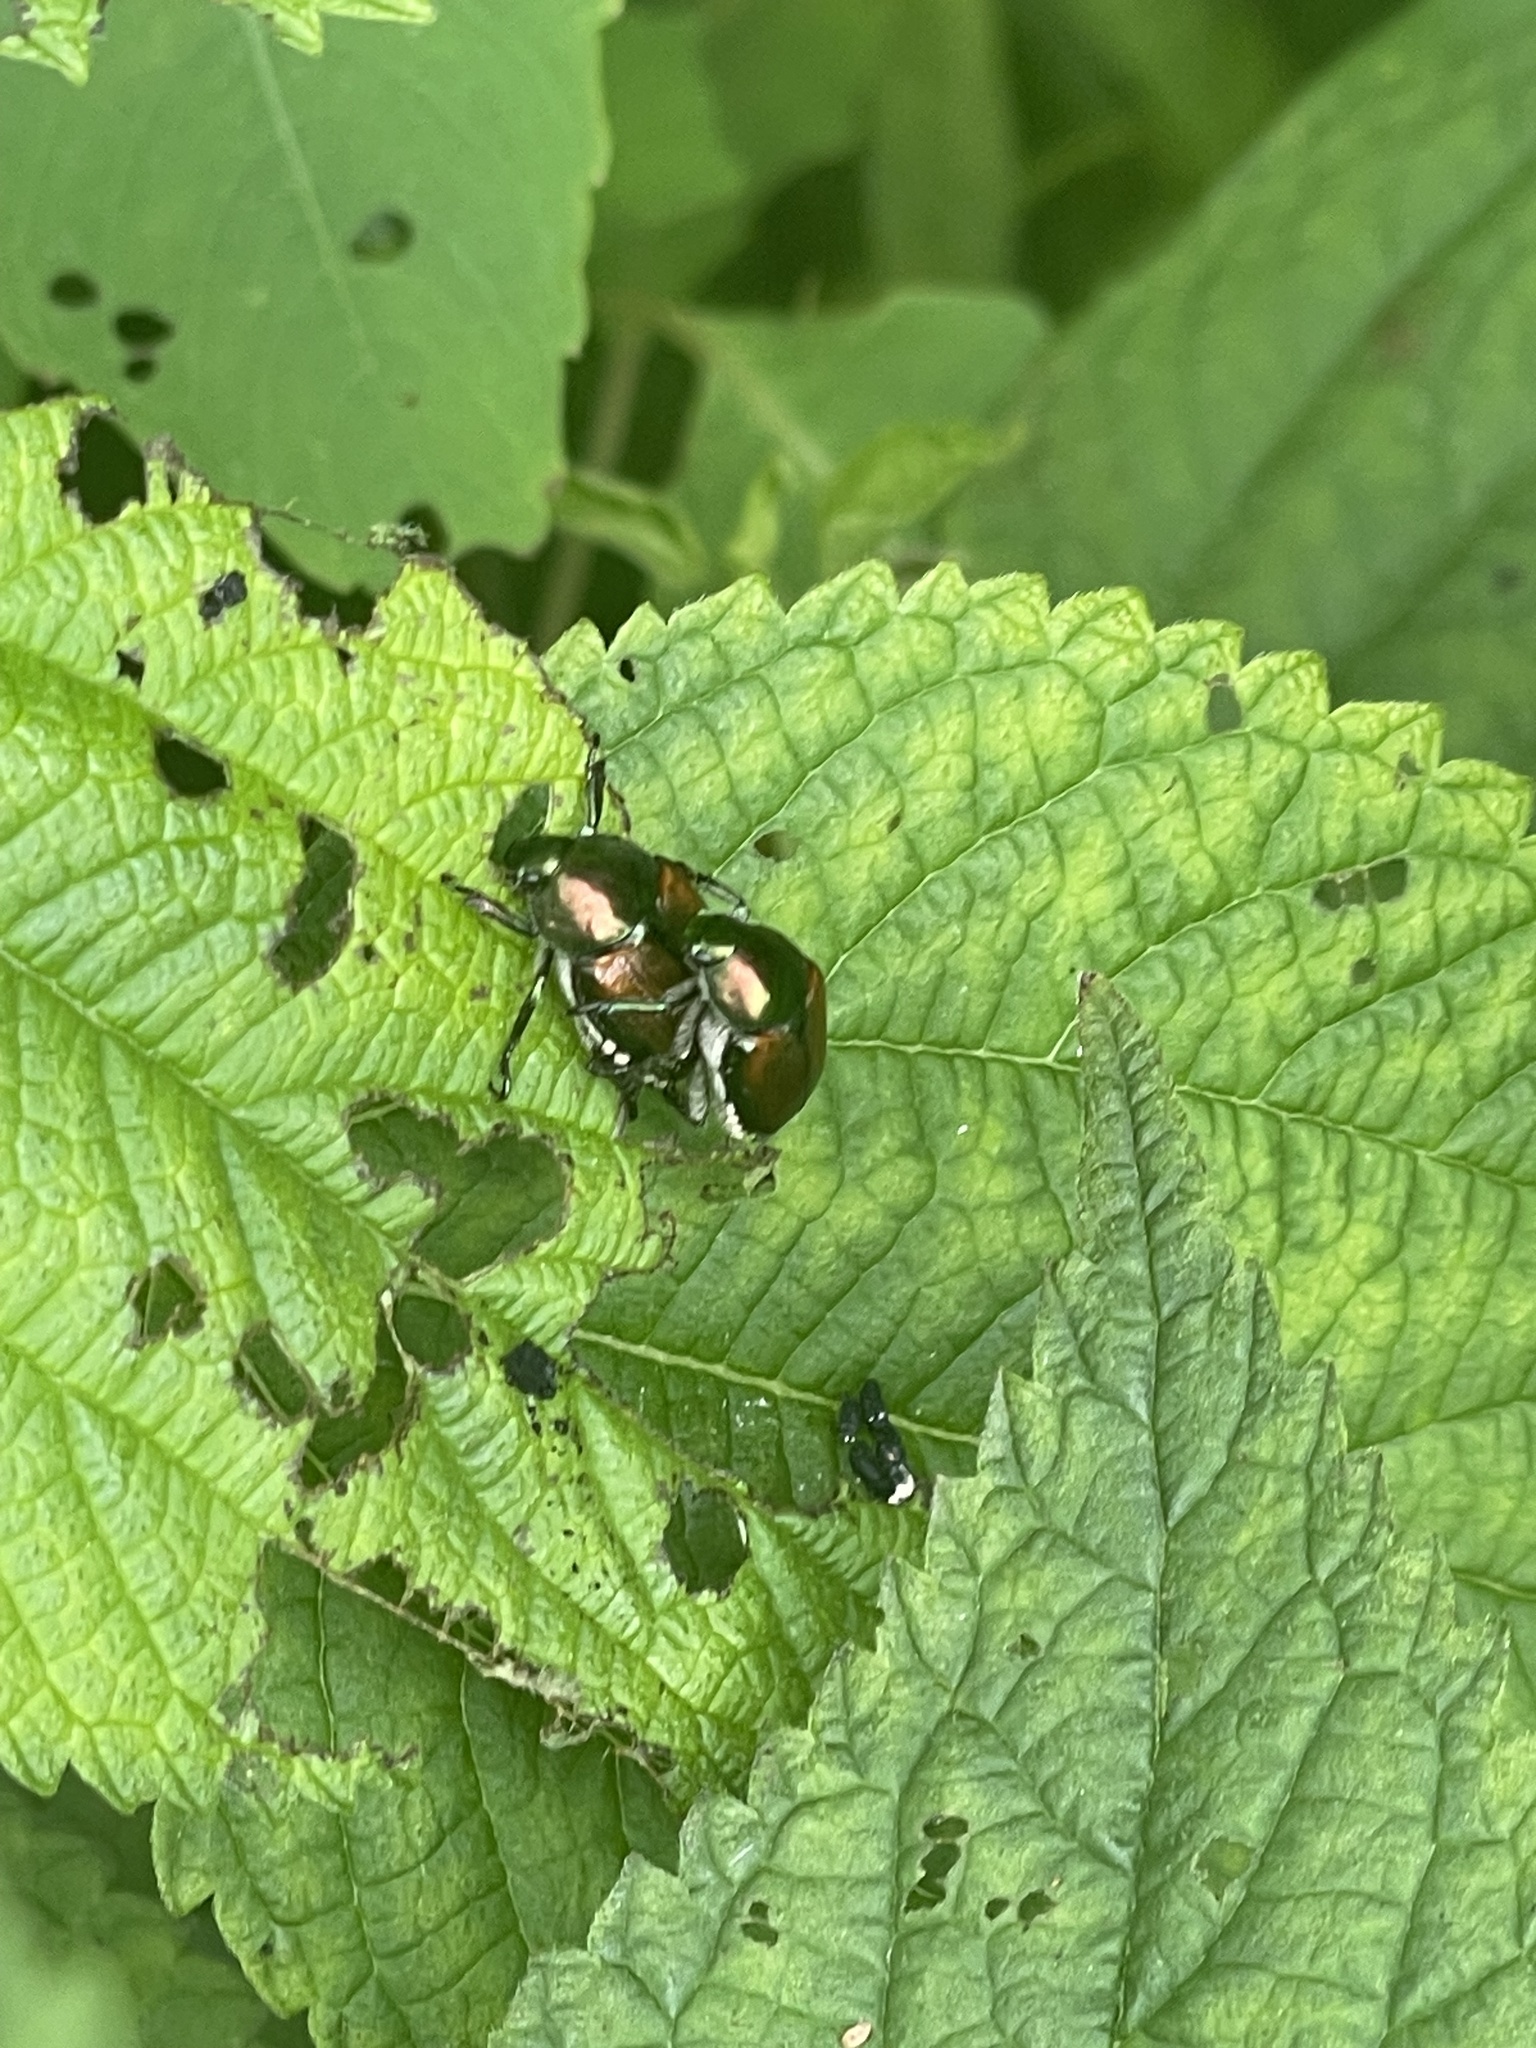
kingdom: Animalia
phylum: Arthropoda
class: Insecta
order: Coleoptera
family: Scarabaeidae
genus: Popillia
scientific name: Popillia japonica
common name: Japanese beetle
